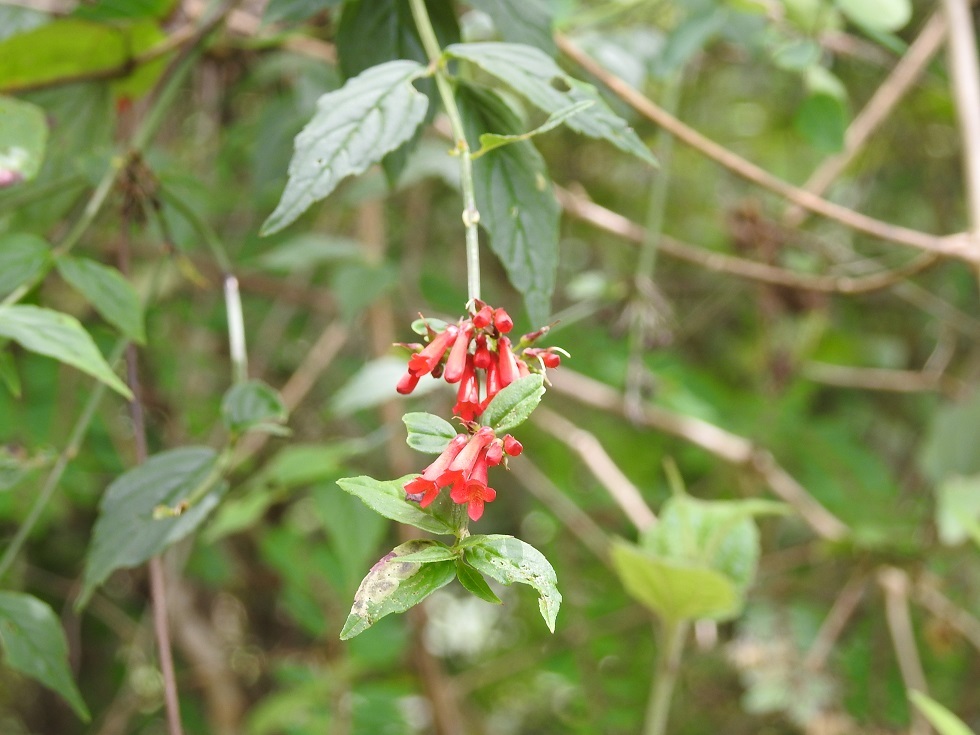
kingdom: Plantae
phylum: Tracheophyta
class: Magnoliopsida
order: Lamiales
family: Plantaginaceae
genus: Russelia
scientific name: Russelia coccinea
